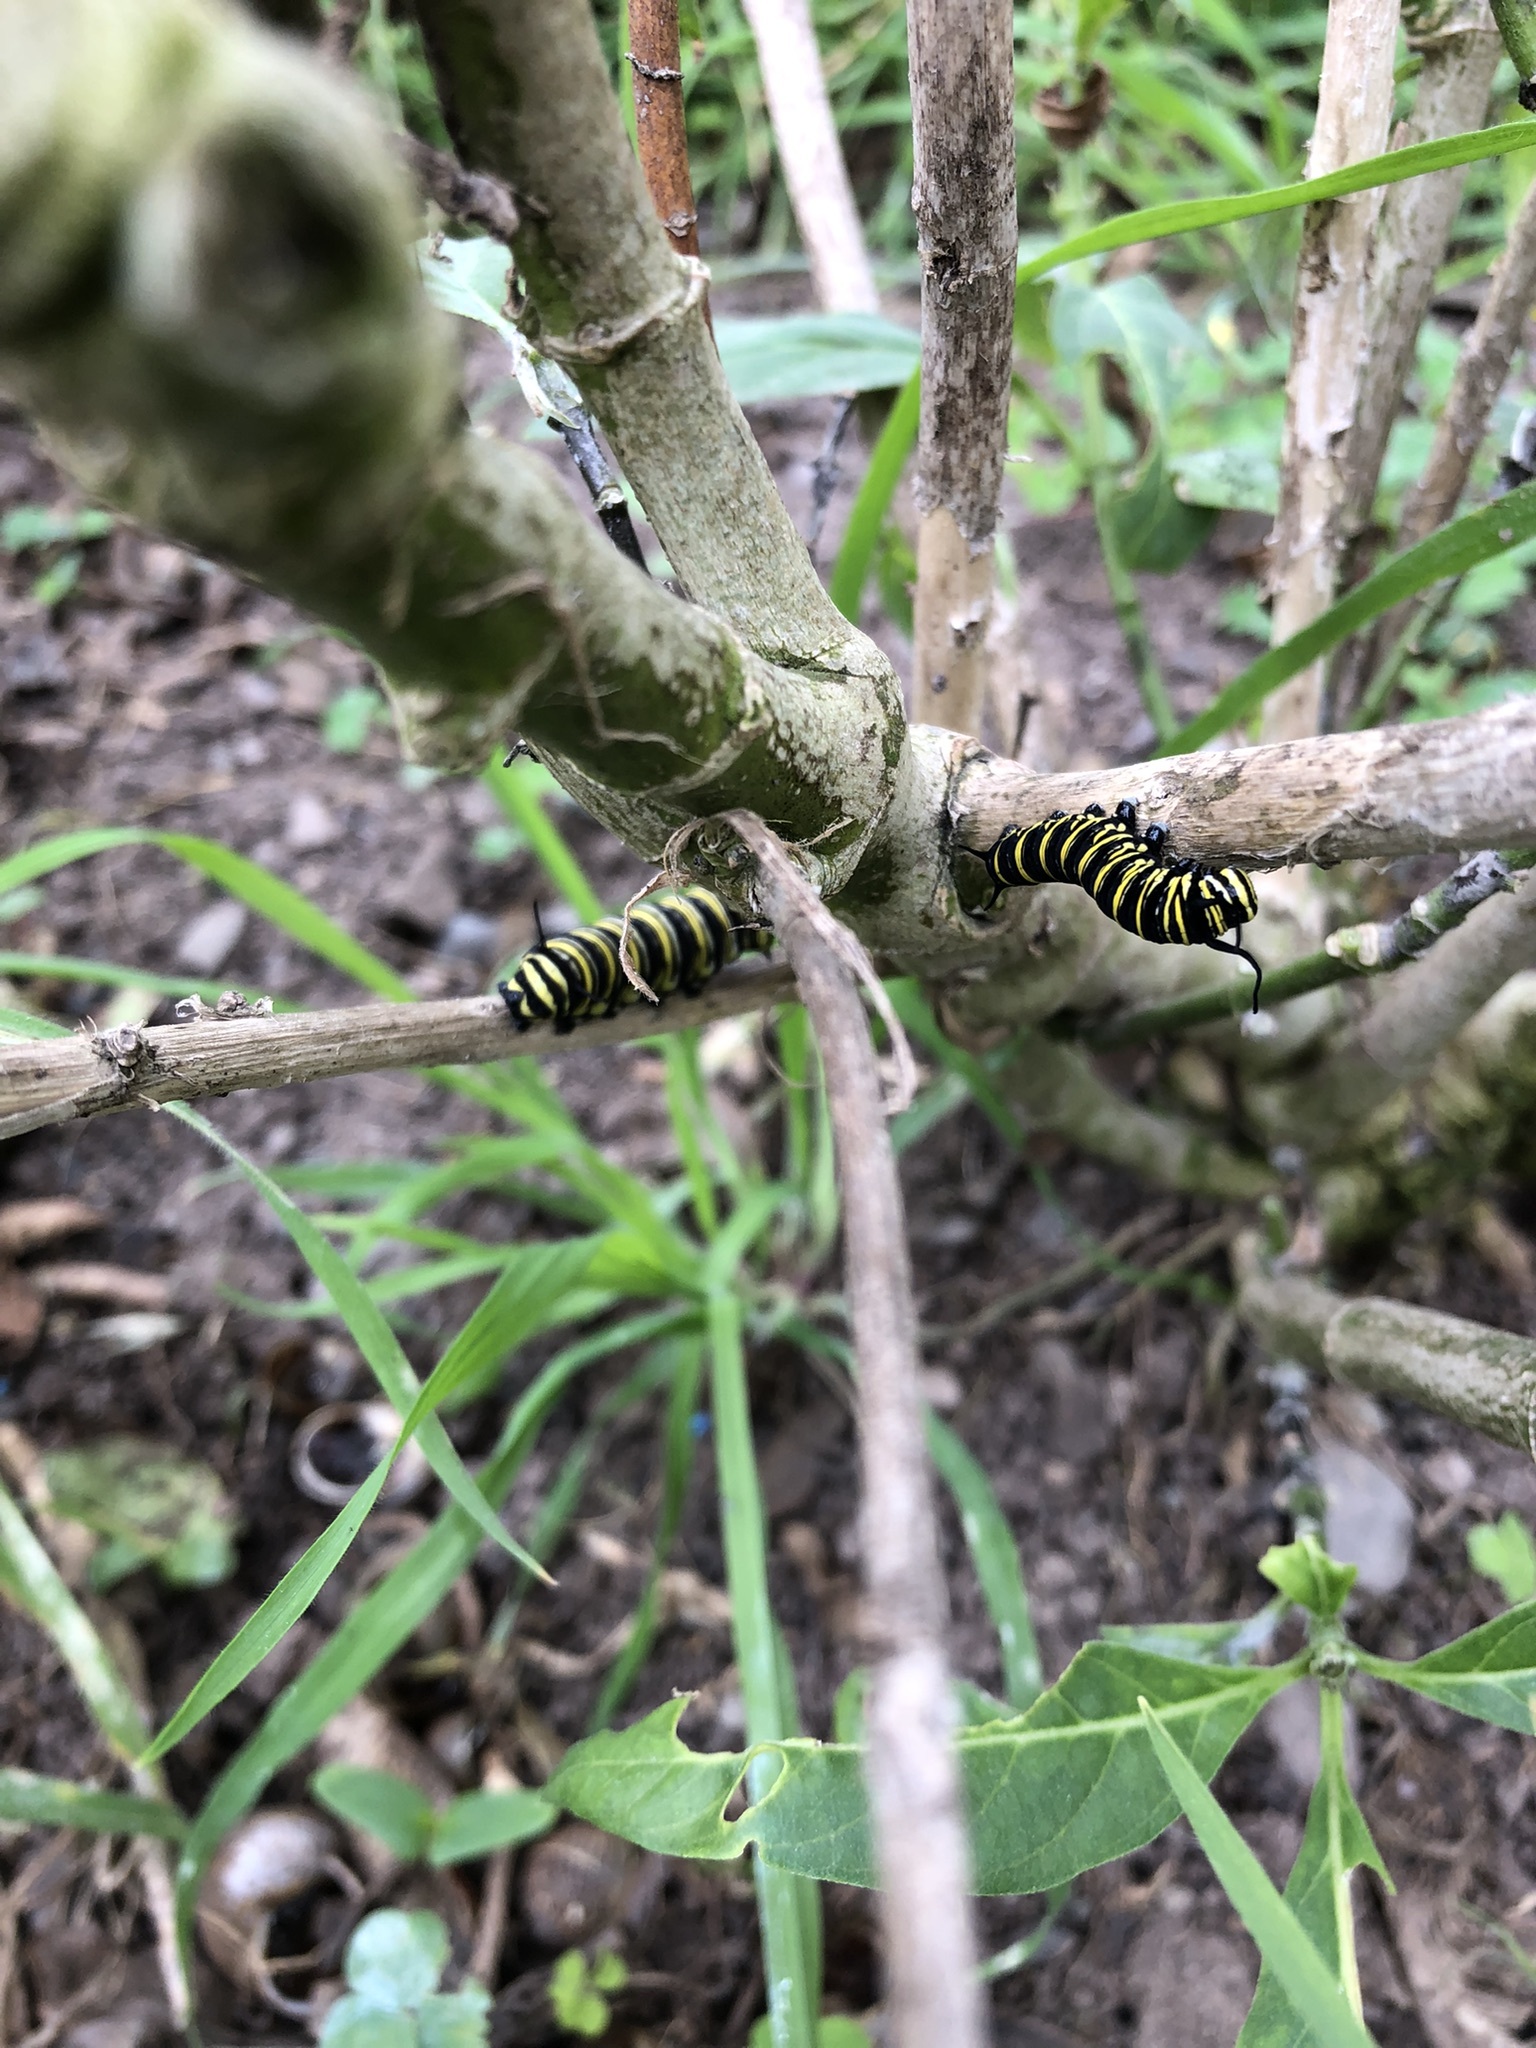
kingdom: Animalia
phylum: Arthropoda
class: Insecta
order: Lepidoptera
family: Nymphalidae
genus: Danaus
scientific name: Danaus plexippus
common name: Monarch
